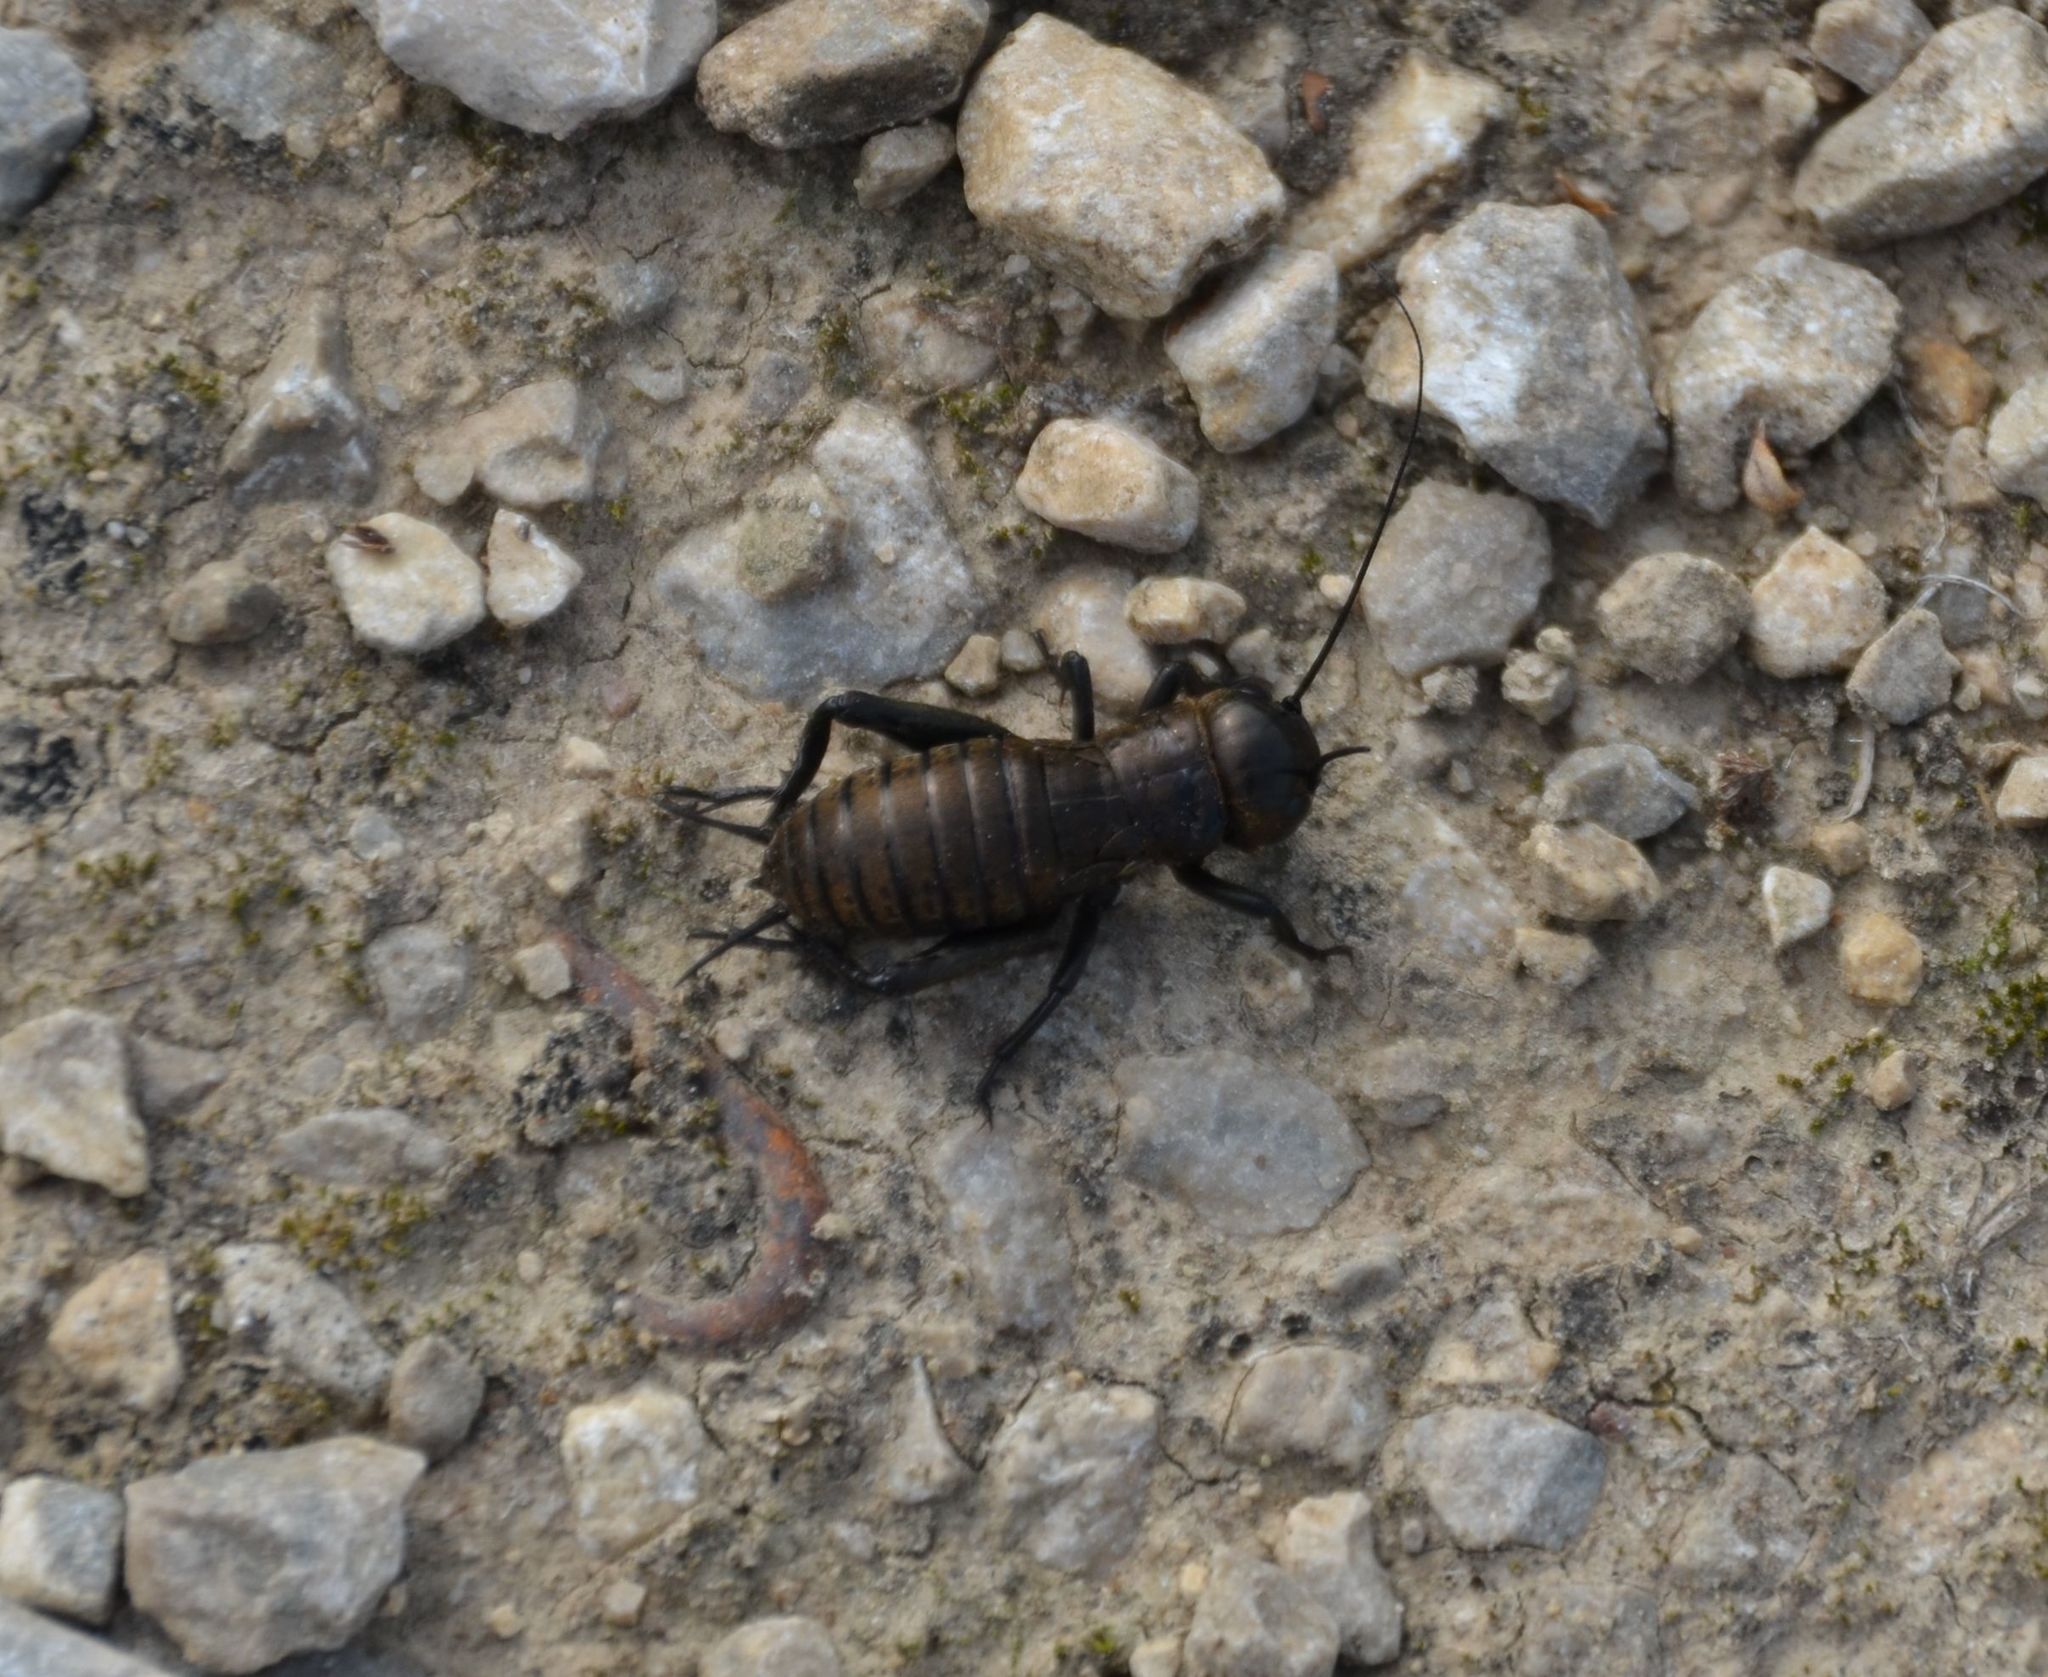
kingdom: Animalia
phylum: Arthropoda
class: Insecta
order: Orthoptera
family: Gryllidae
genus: Gryllus
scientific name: Gryllus campestris
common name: Field cricket
